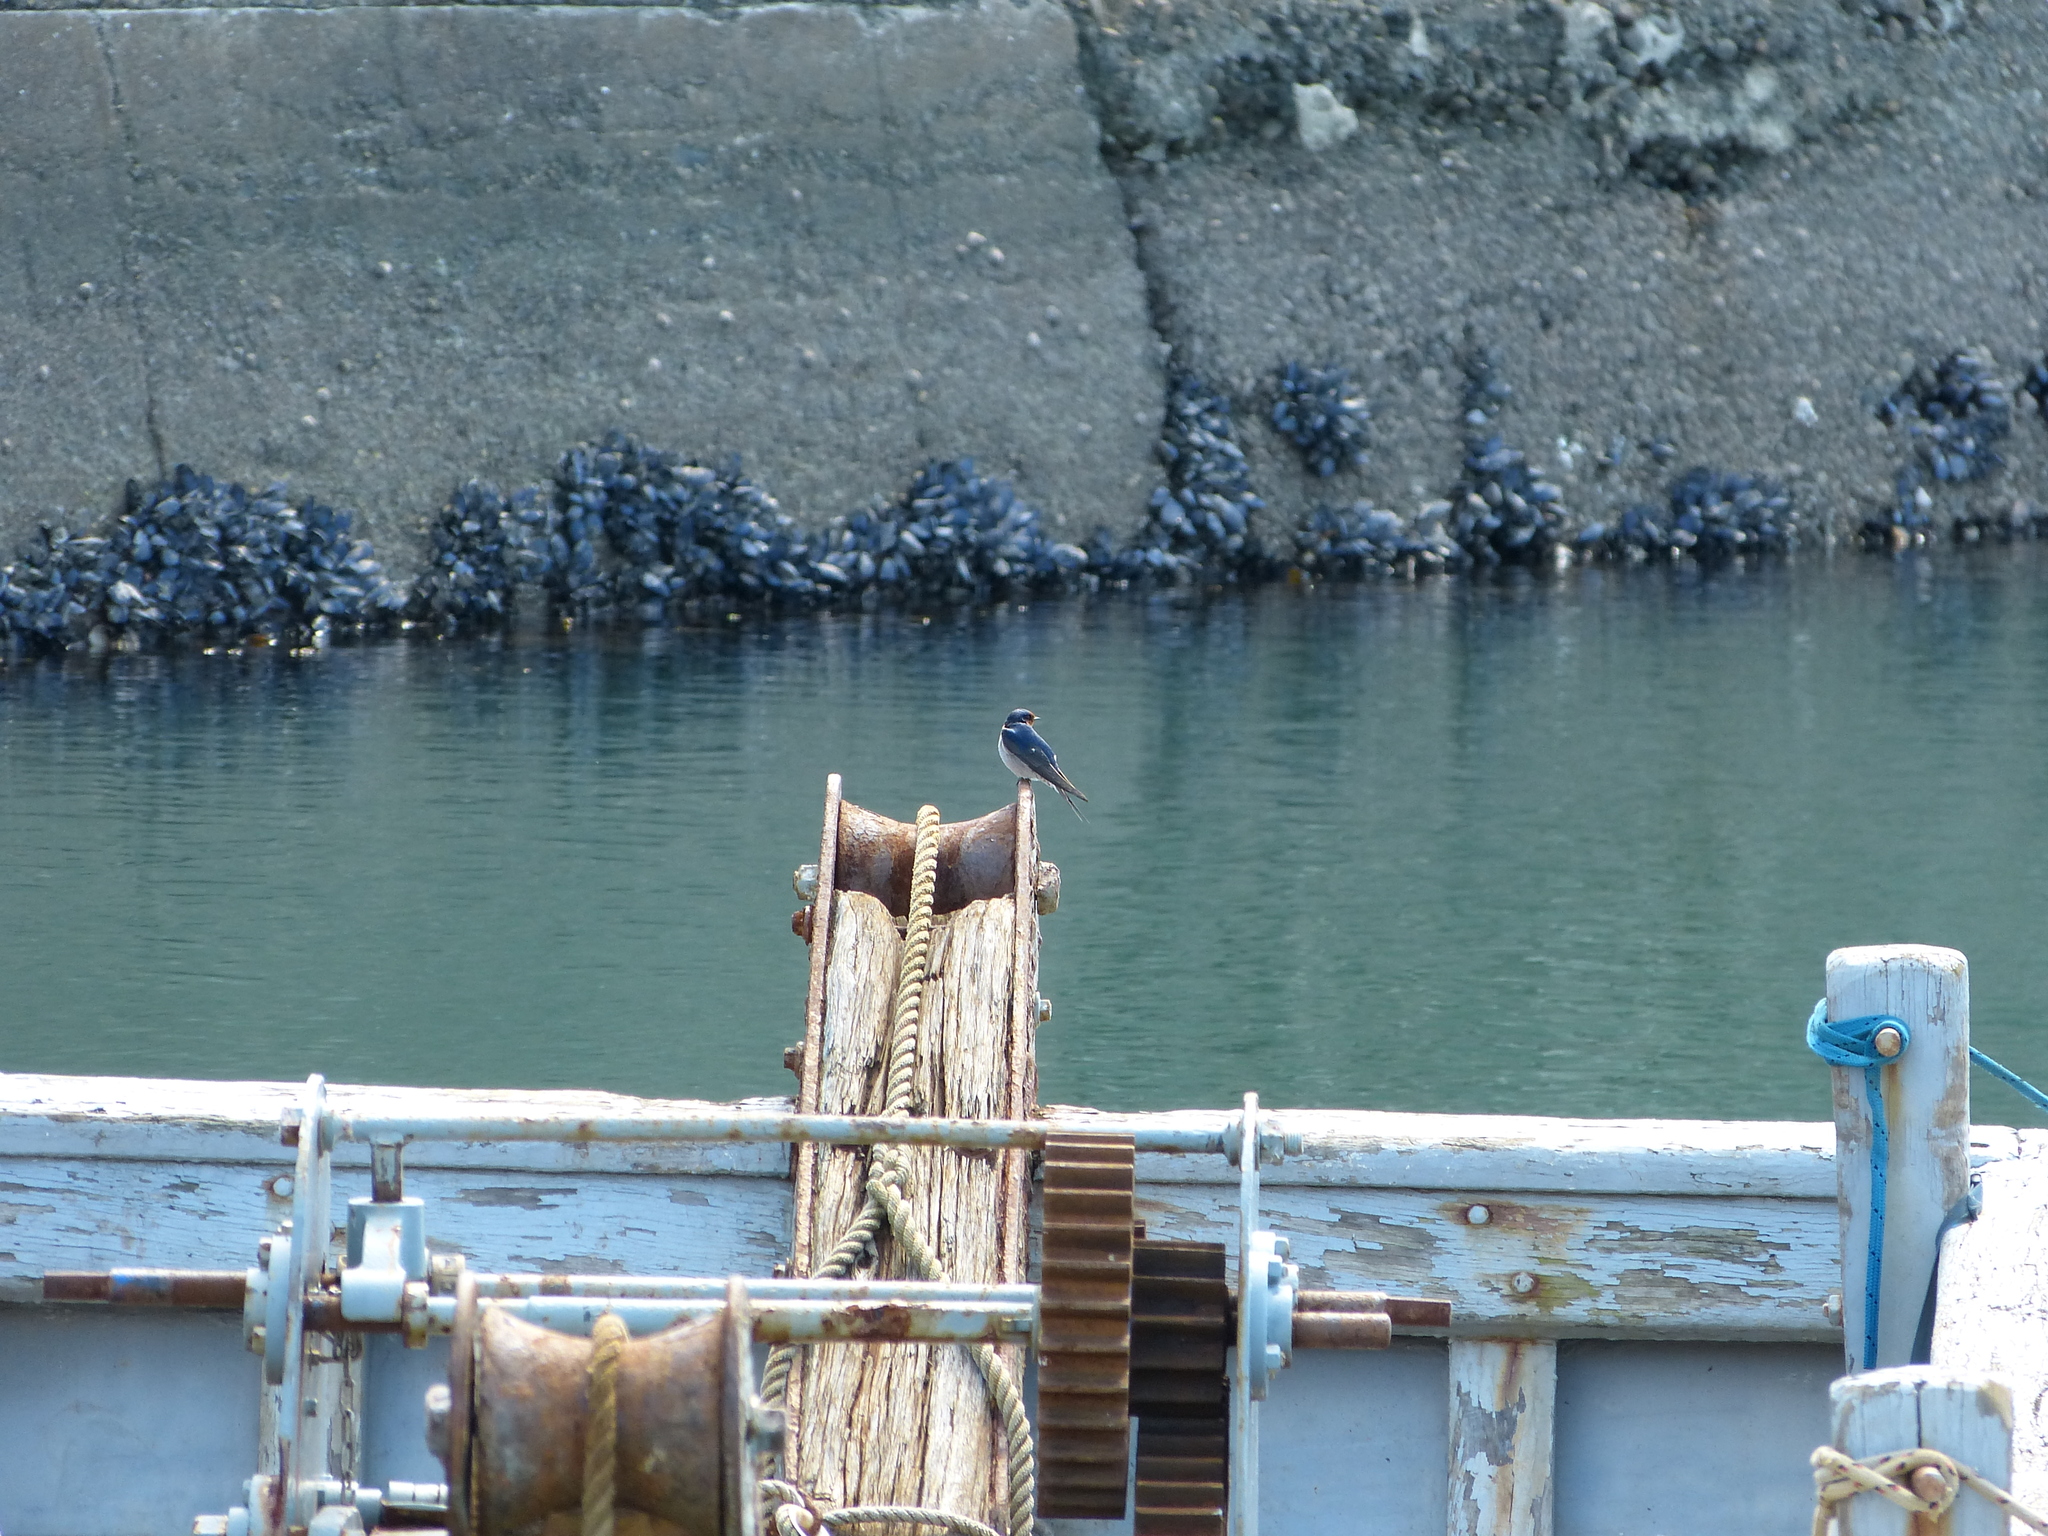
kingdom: Animalia
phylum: Chordata
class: Aves
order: Passeriformes
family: Hirundinidae
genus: Hirundo
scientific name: Hirundo neoxena
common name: Welcome swallow
